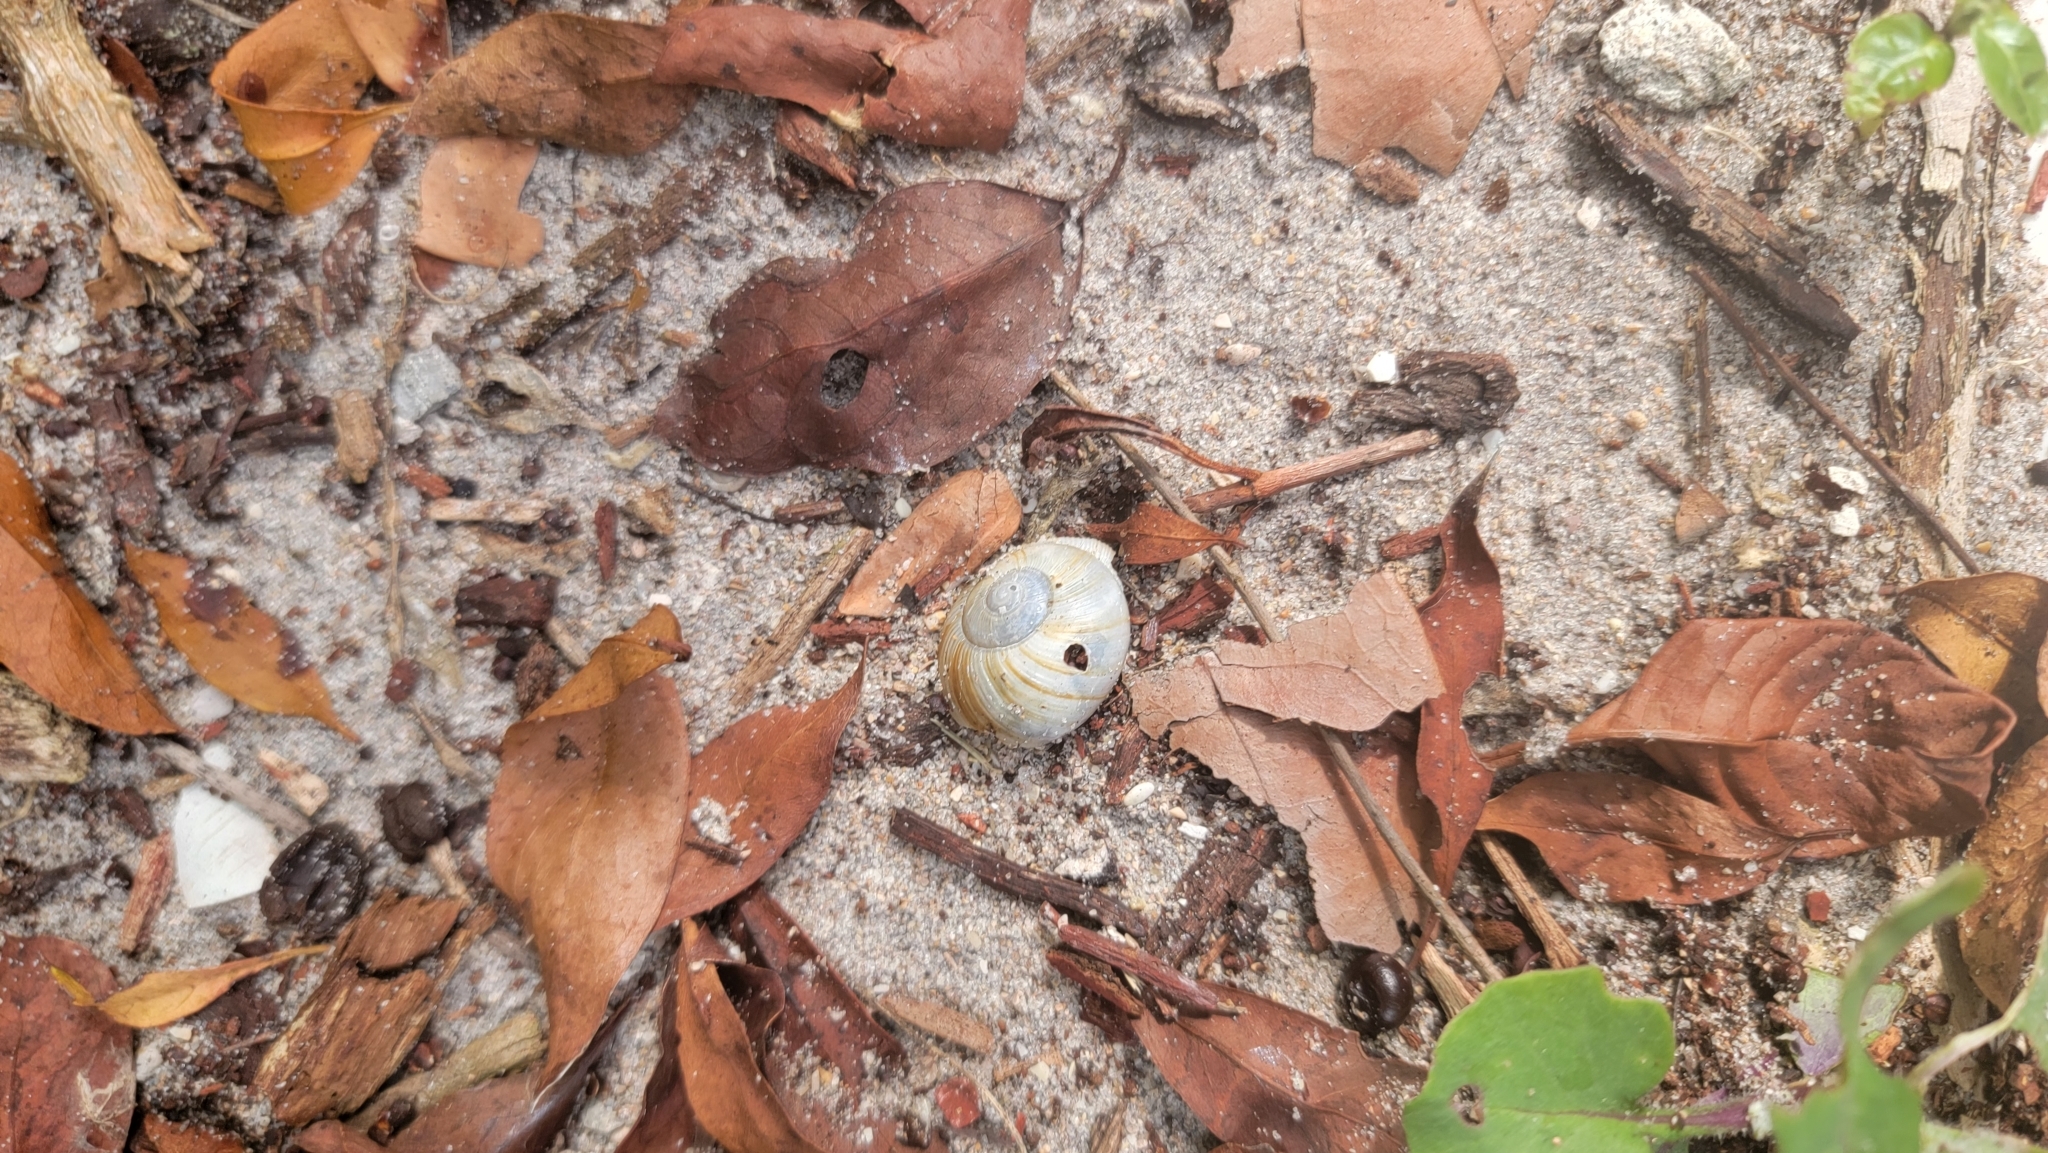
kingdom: Animalia
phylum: Mollusca
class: Gastropoda
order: Stylommatophora
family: Zachrysiidae
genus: Zachrysia
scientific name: Zachrysia provisoria
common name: Garden zachrysia
